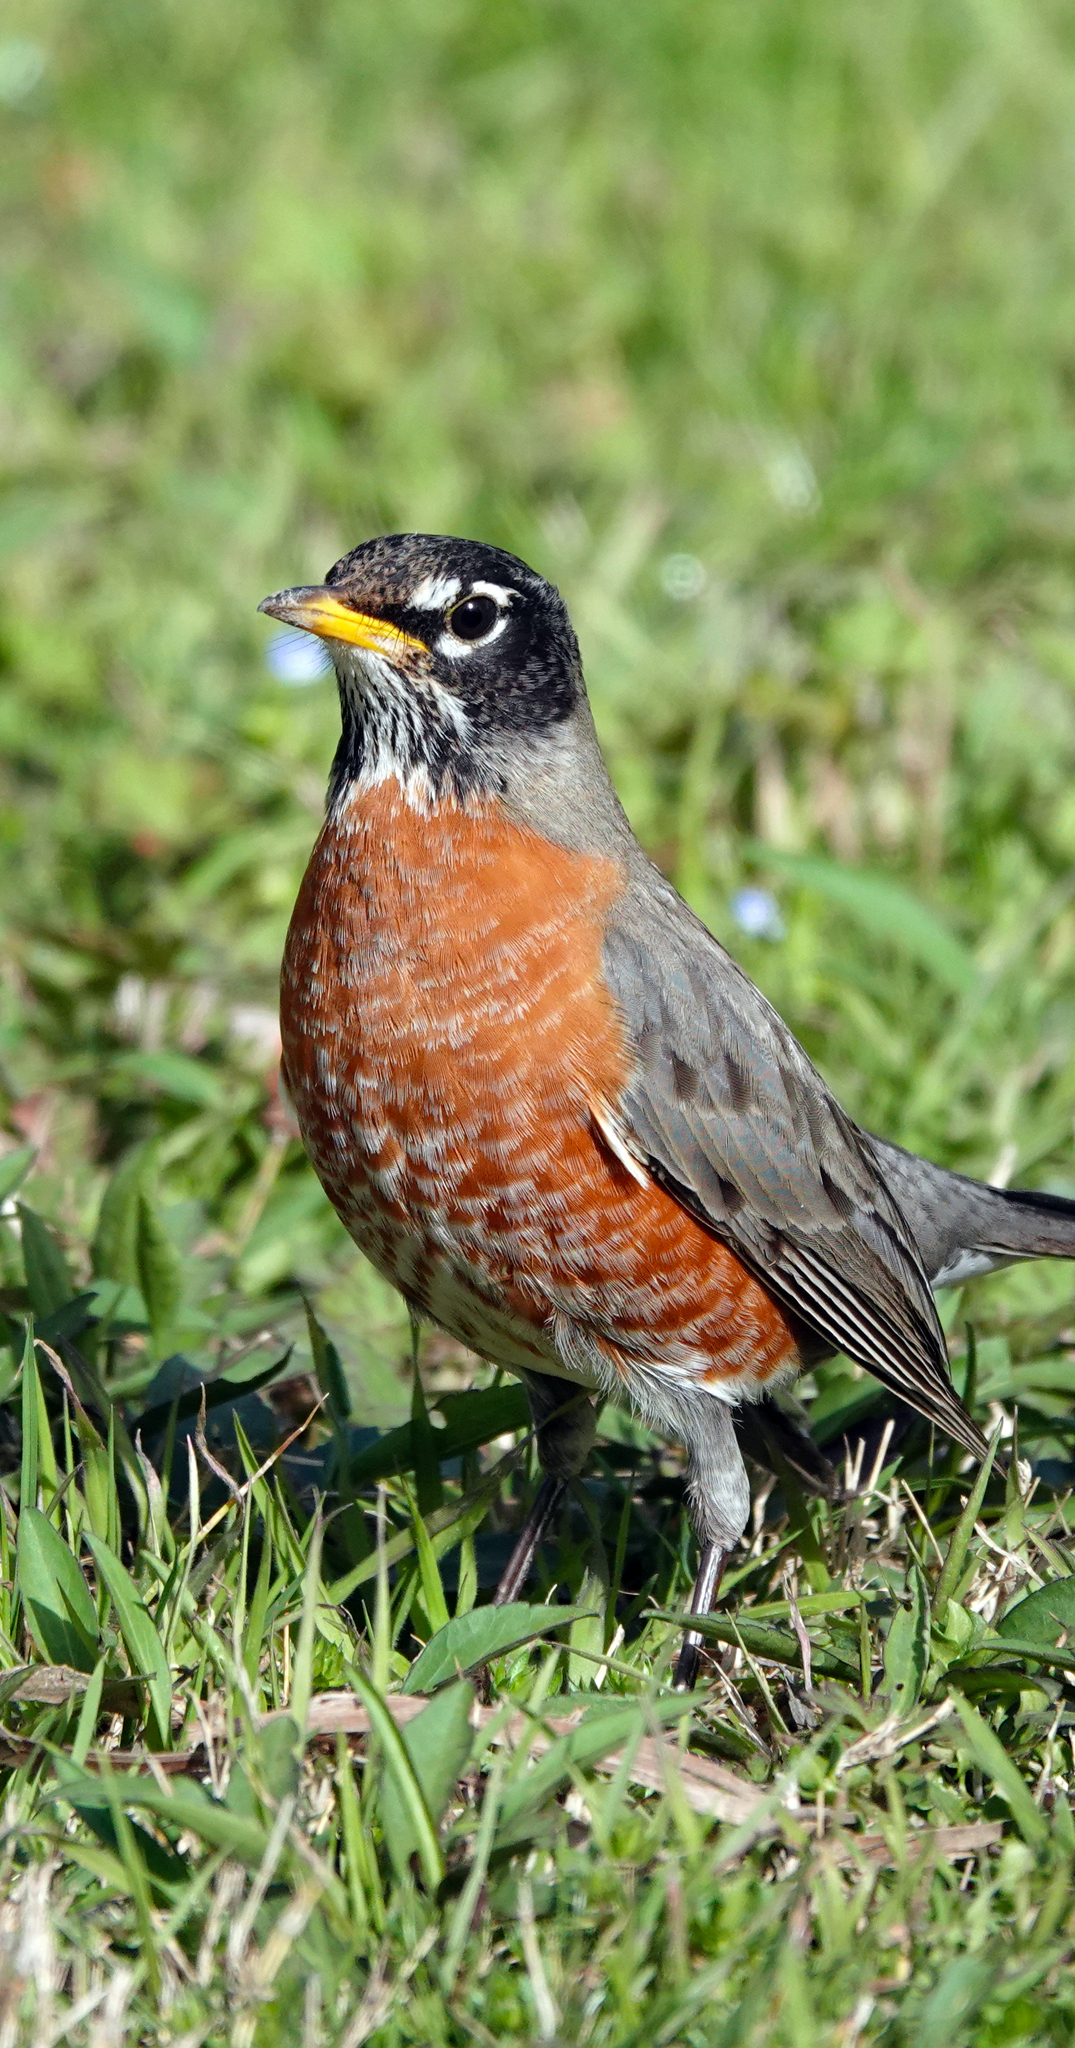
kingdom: Animalia
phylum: Chordata
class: Aves
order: Passeriformes
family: Turdidae
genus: Turdus
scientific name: Turdus migratorius
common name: American robin
